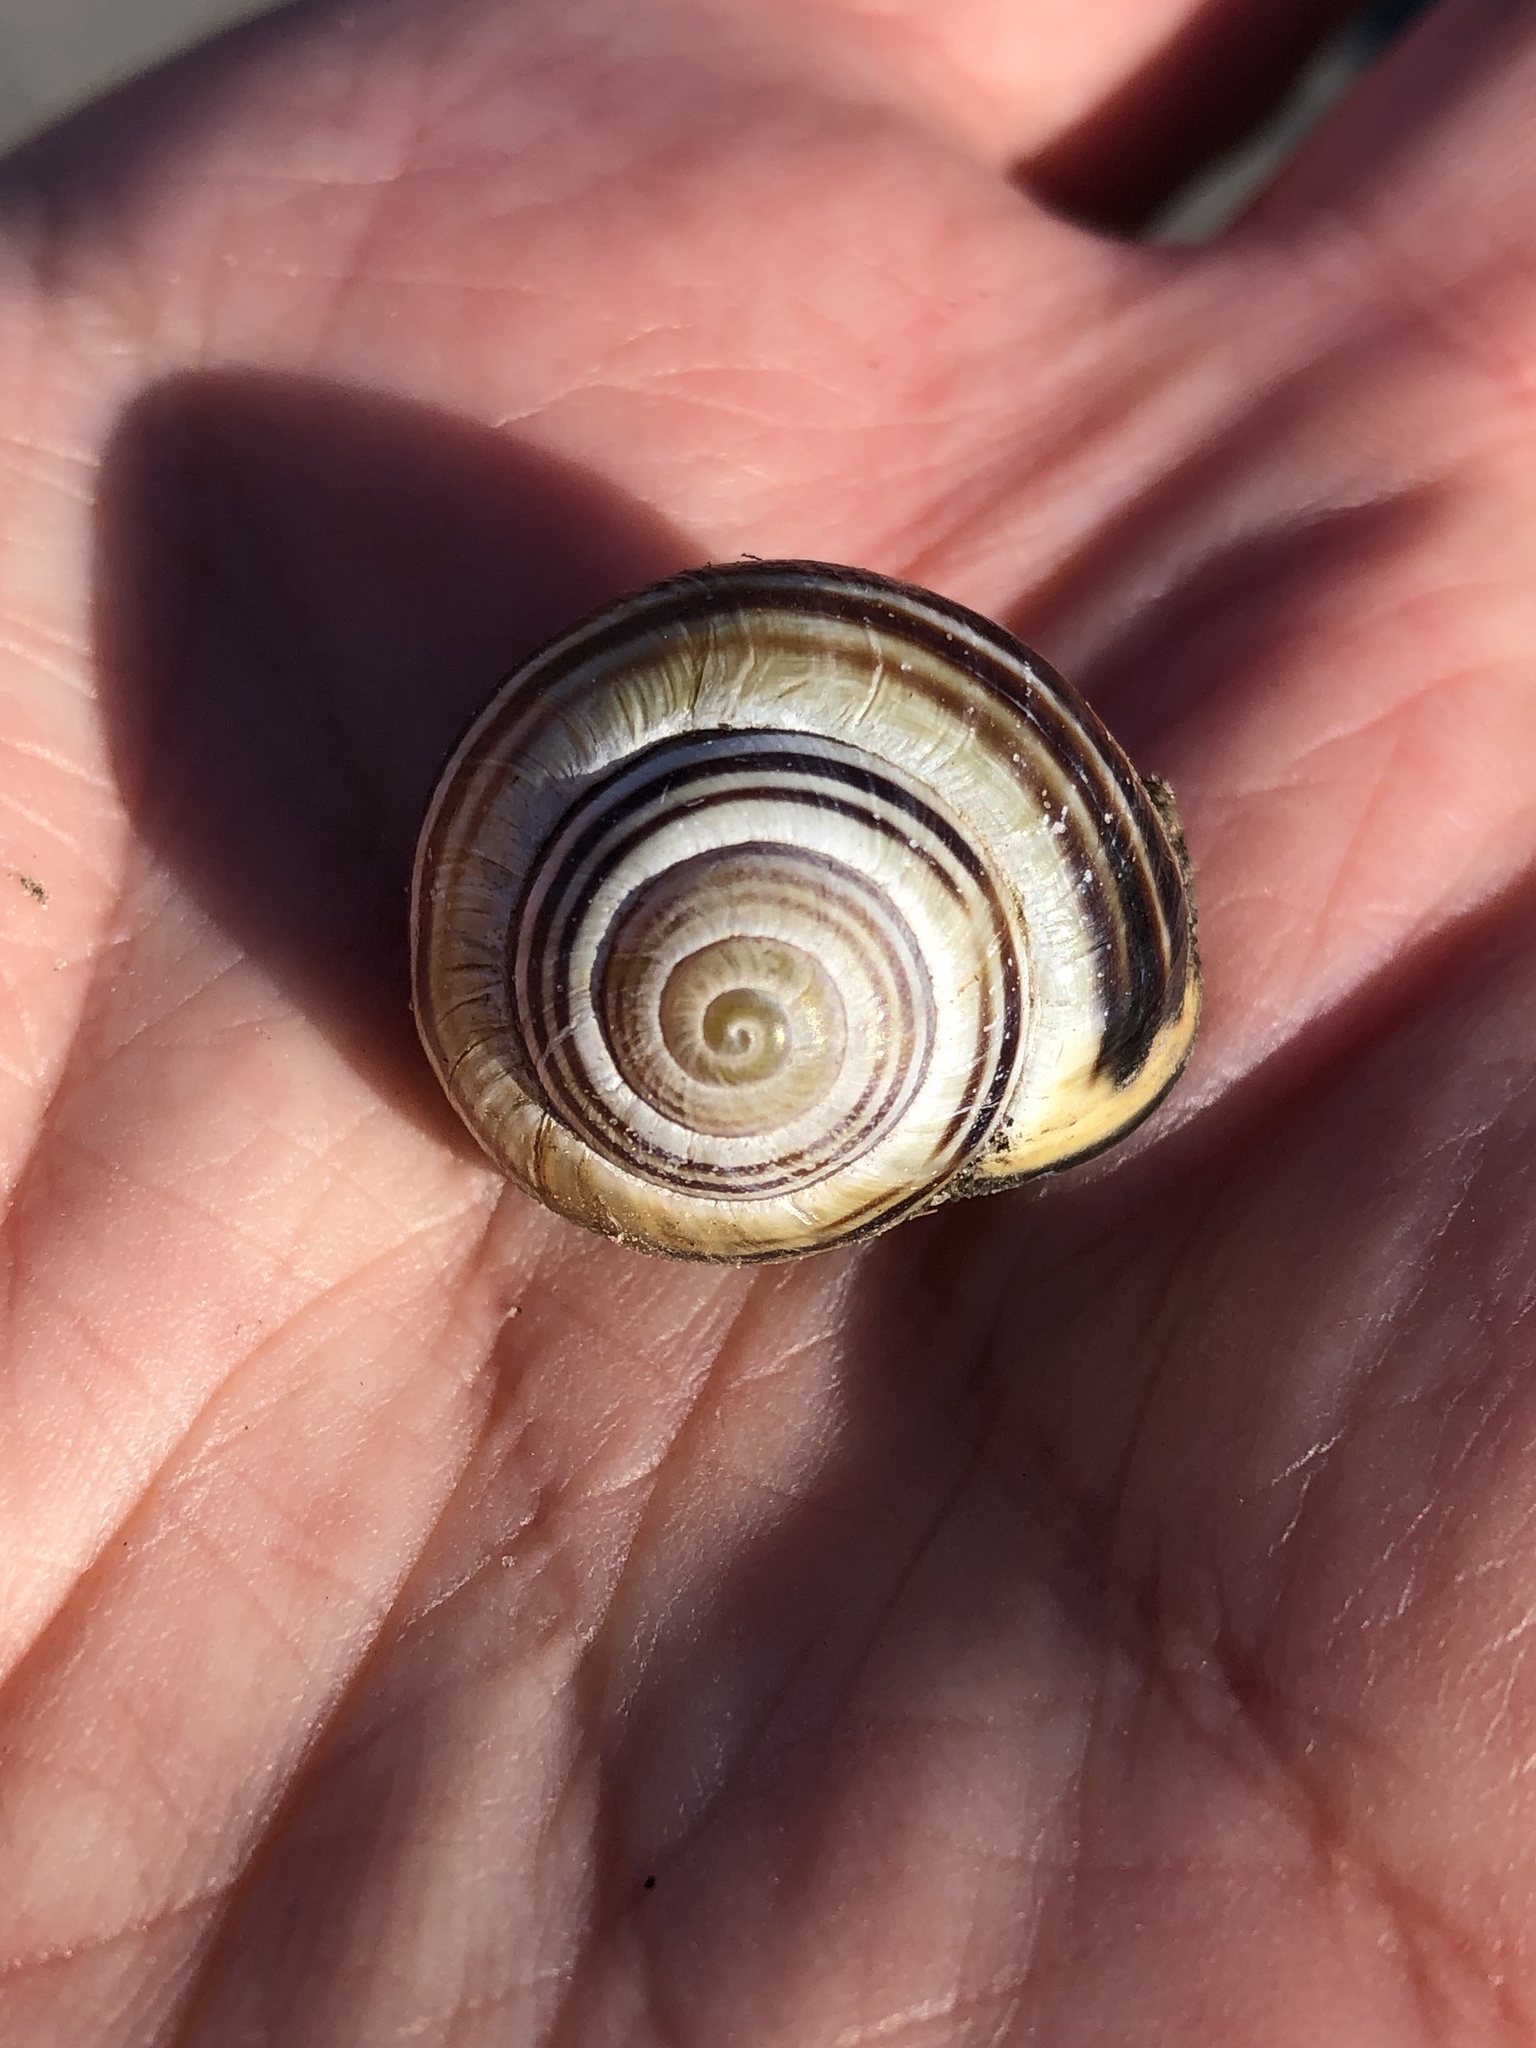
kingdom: Animalia
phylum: Mollusca
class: Gastropoda
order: Stylommatophora
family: Helicidae
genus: Cepaea
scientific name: Cepaea nemoralis
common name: Grovesnail
